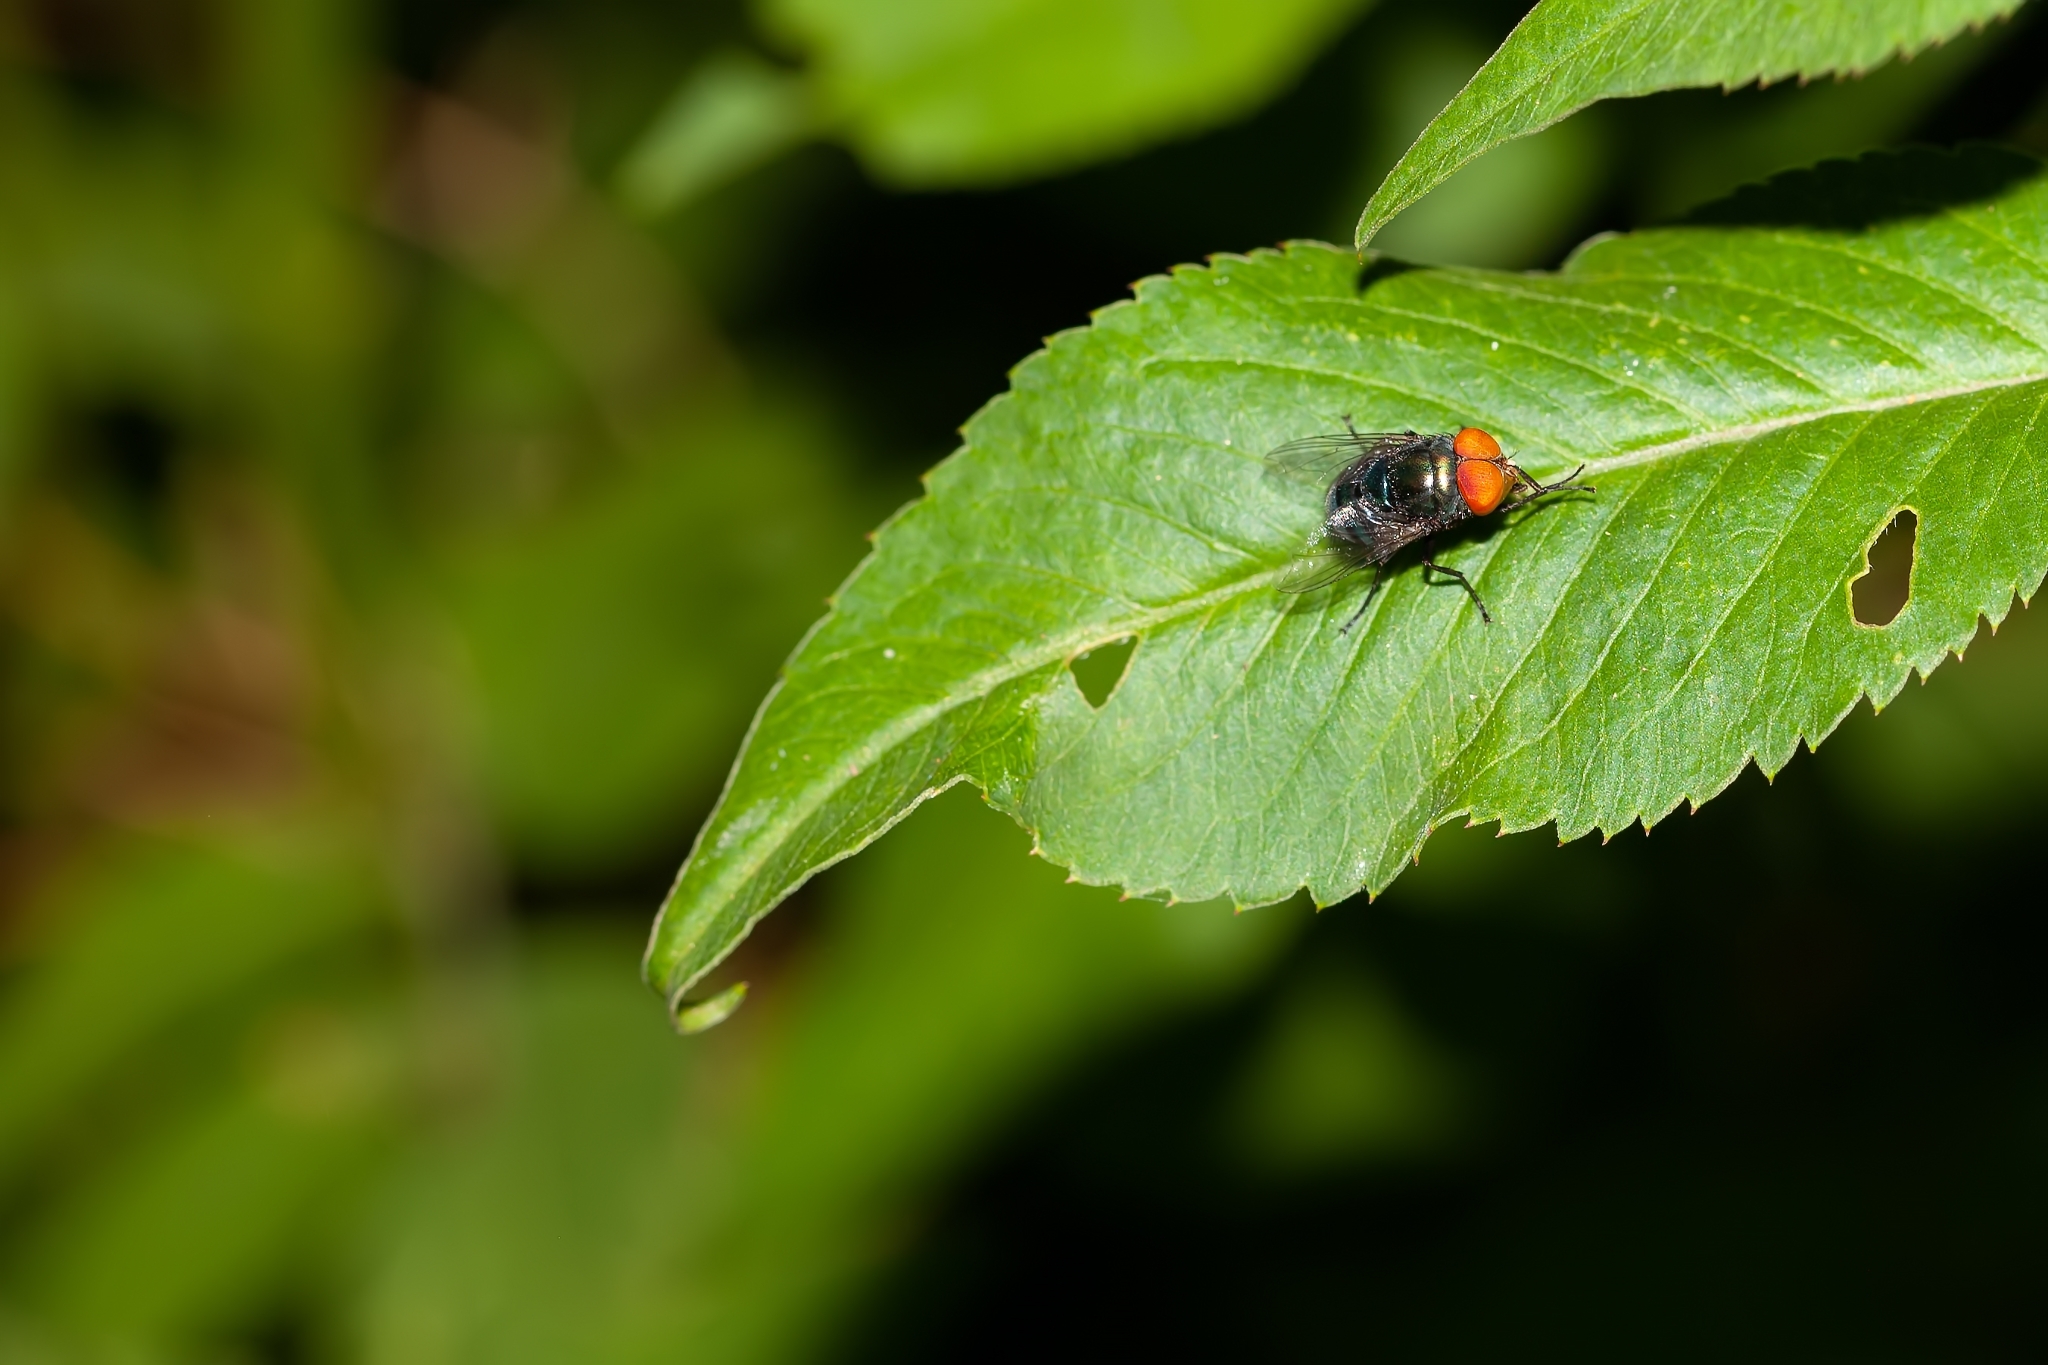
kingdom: Animalia
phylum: Arthropoda
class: Insecta
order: Diptera
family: Calliphoridae
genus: Chrysomya
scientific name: Chrysomya megacephala
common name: Blow fly
